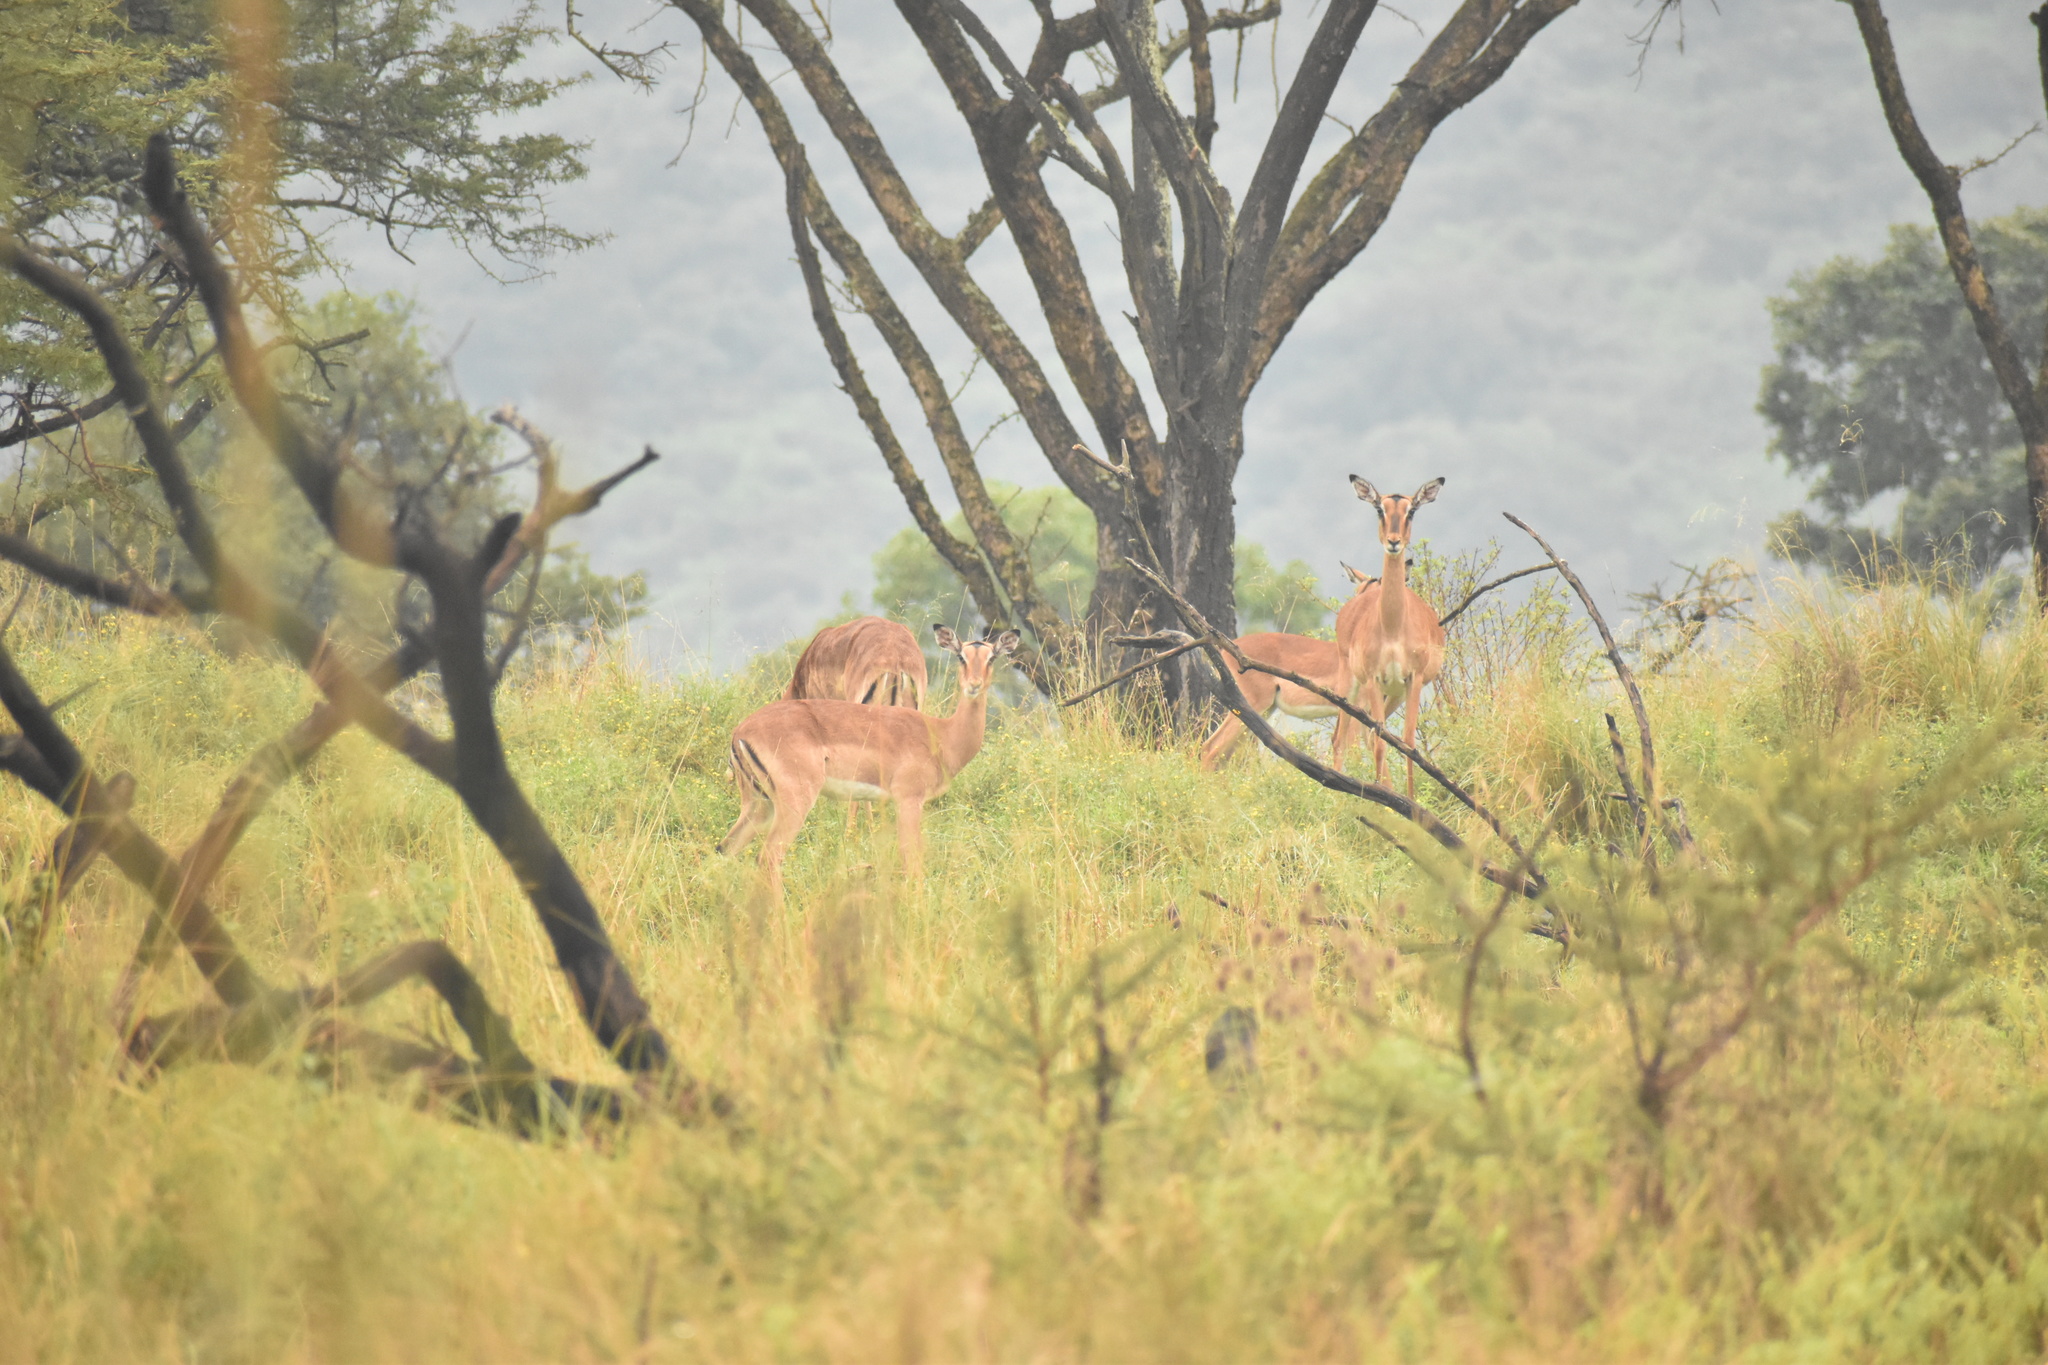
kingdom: Animalia
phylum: Chordata
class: Mammalia
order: Artiodactyla
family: Bovidae
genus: Aepyceros
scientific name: Aepyceros melampus
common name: Impala
